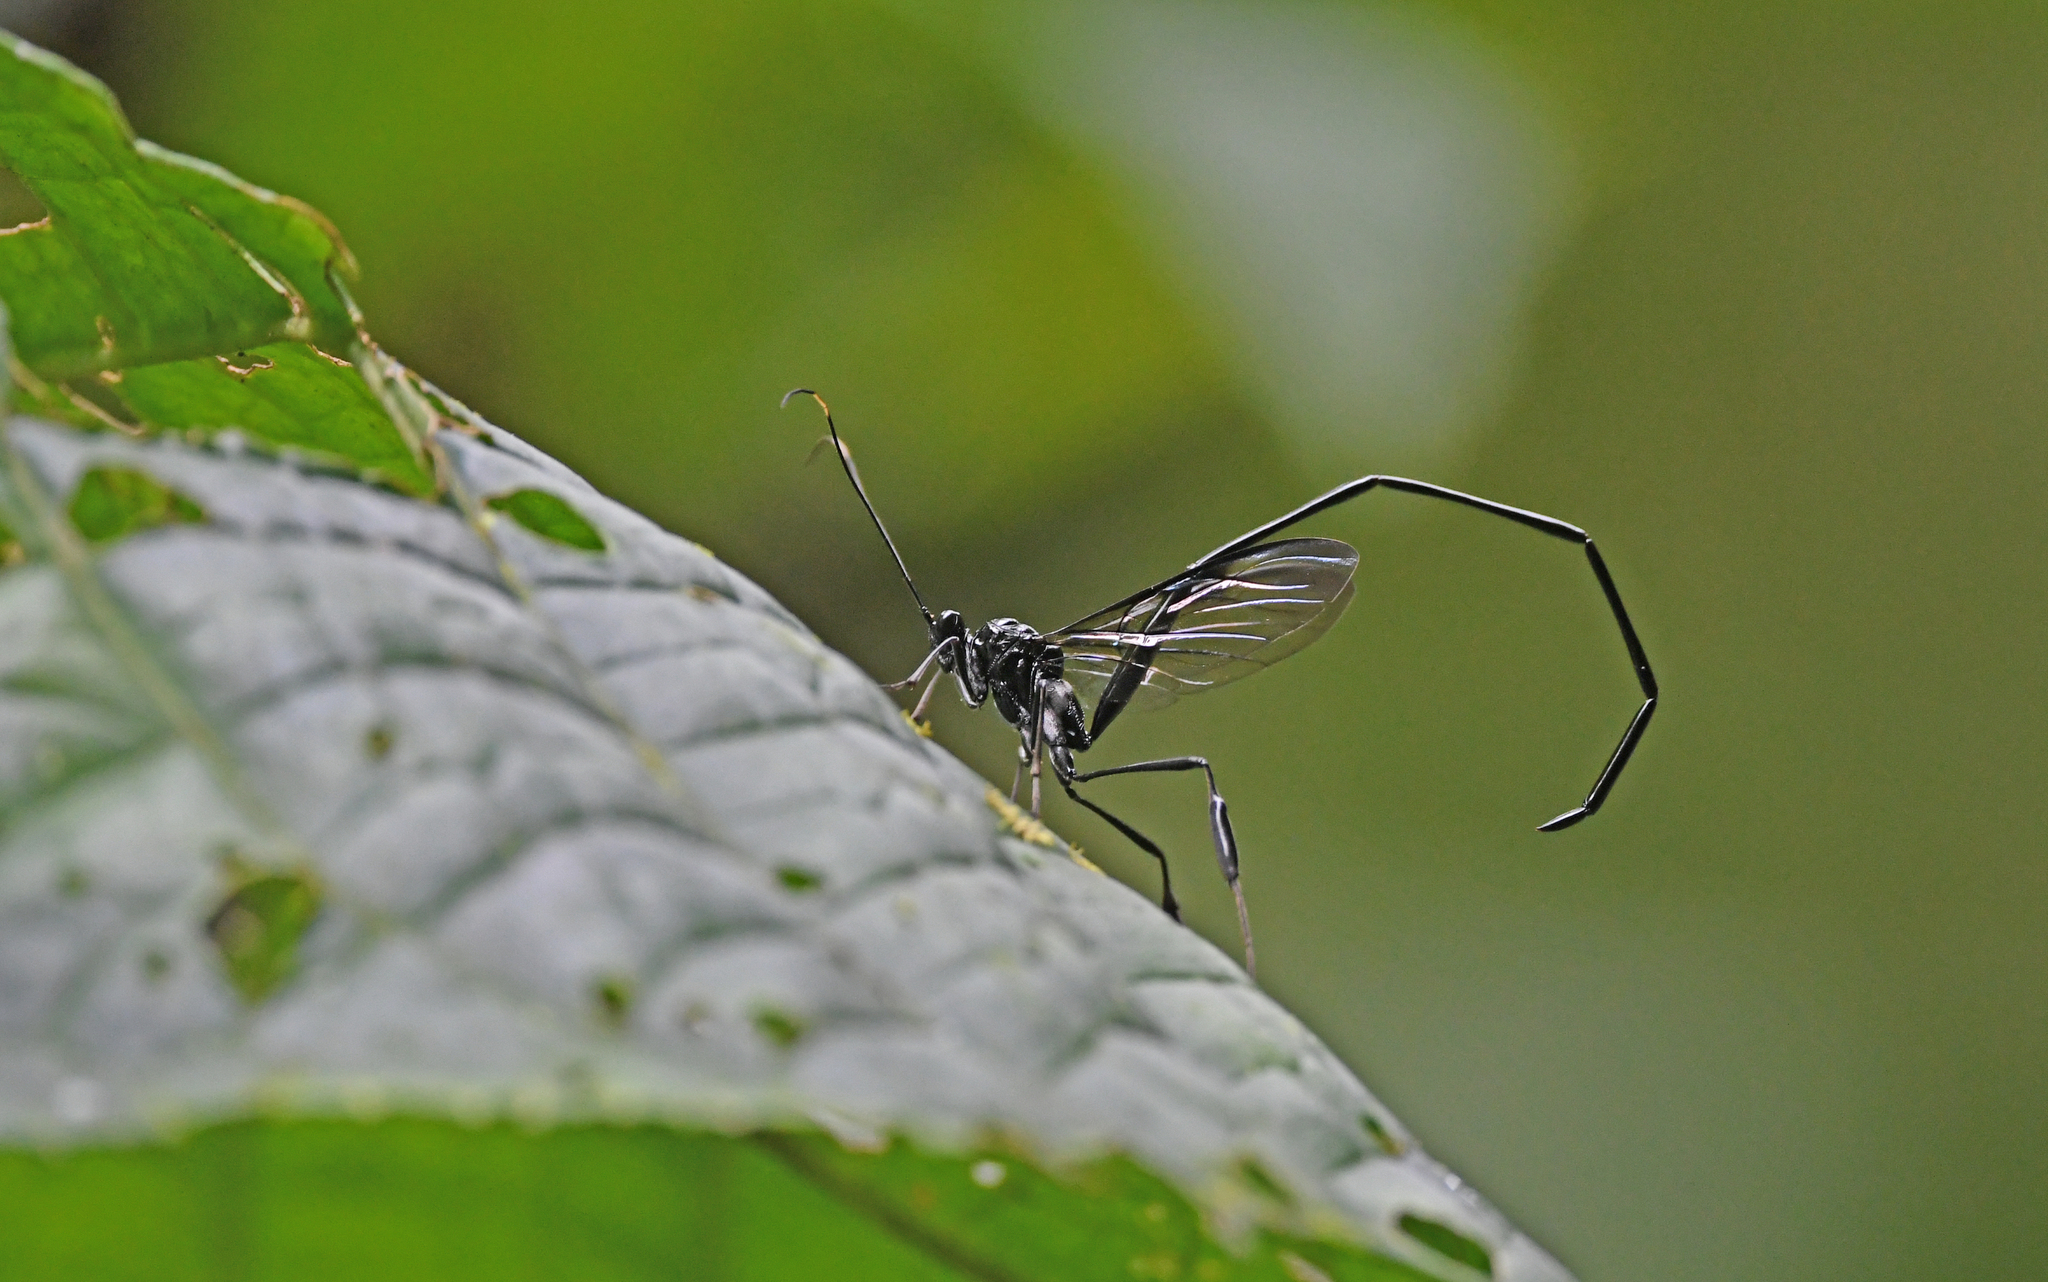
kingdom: Animalia
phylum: Arthropoda
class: Insecta
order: Hymenoptera
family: Pelecinidae
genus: Pelecinus
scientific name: Pelecinus polyturator
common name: American pelecinid wasp
